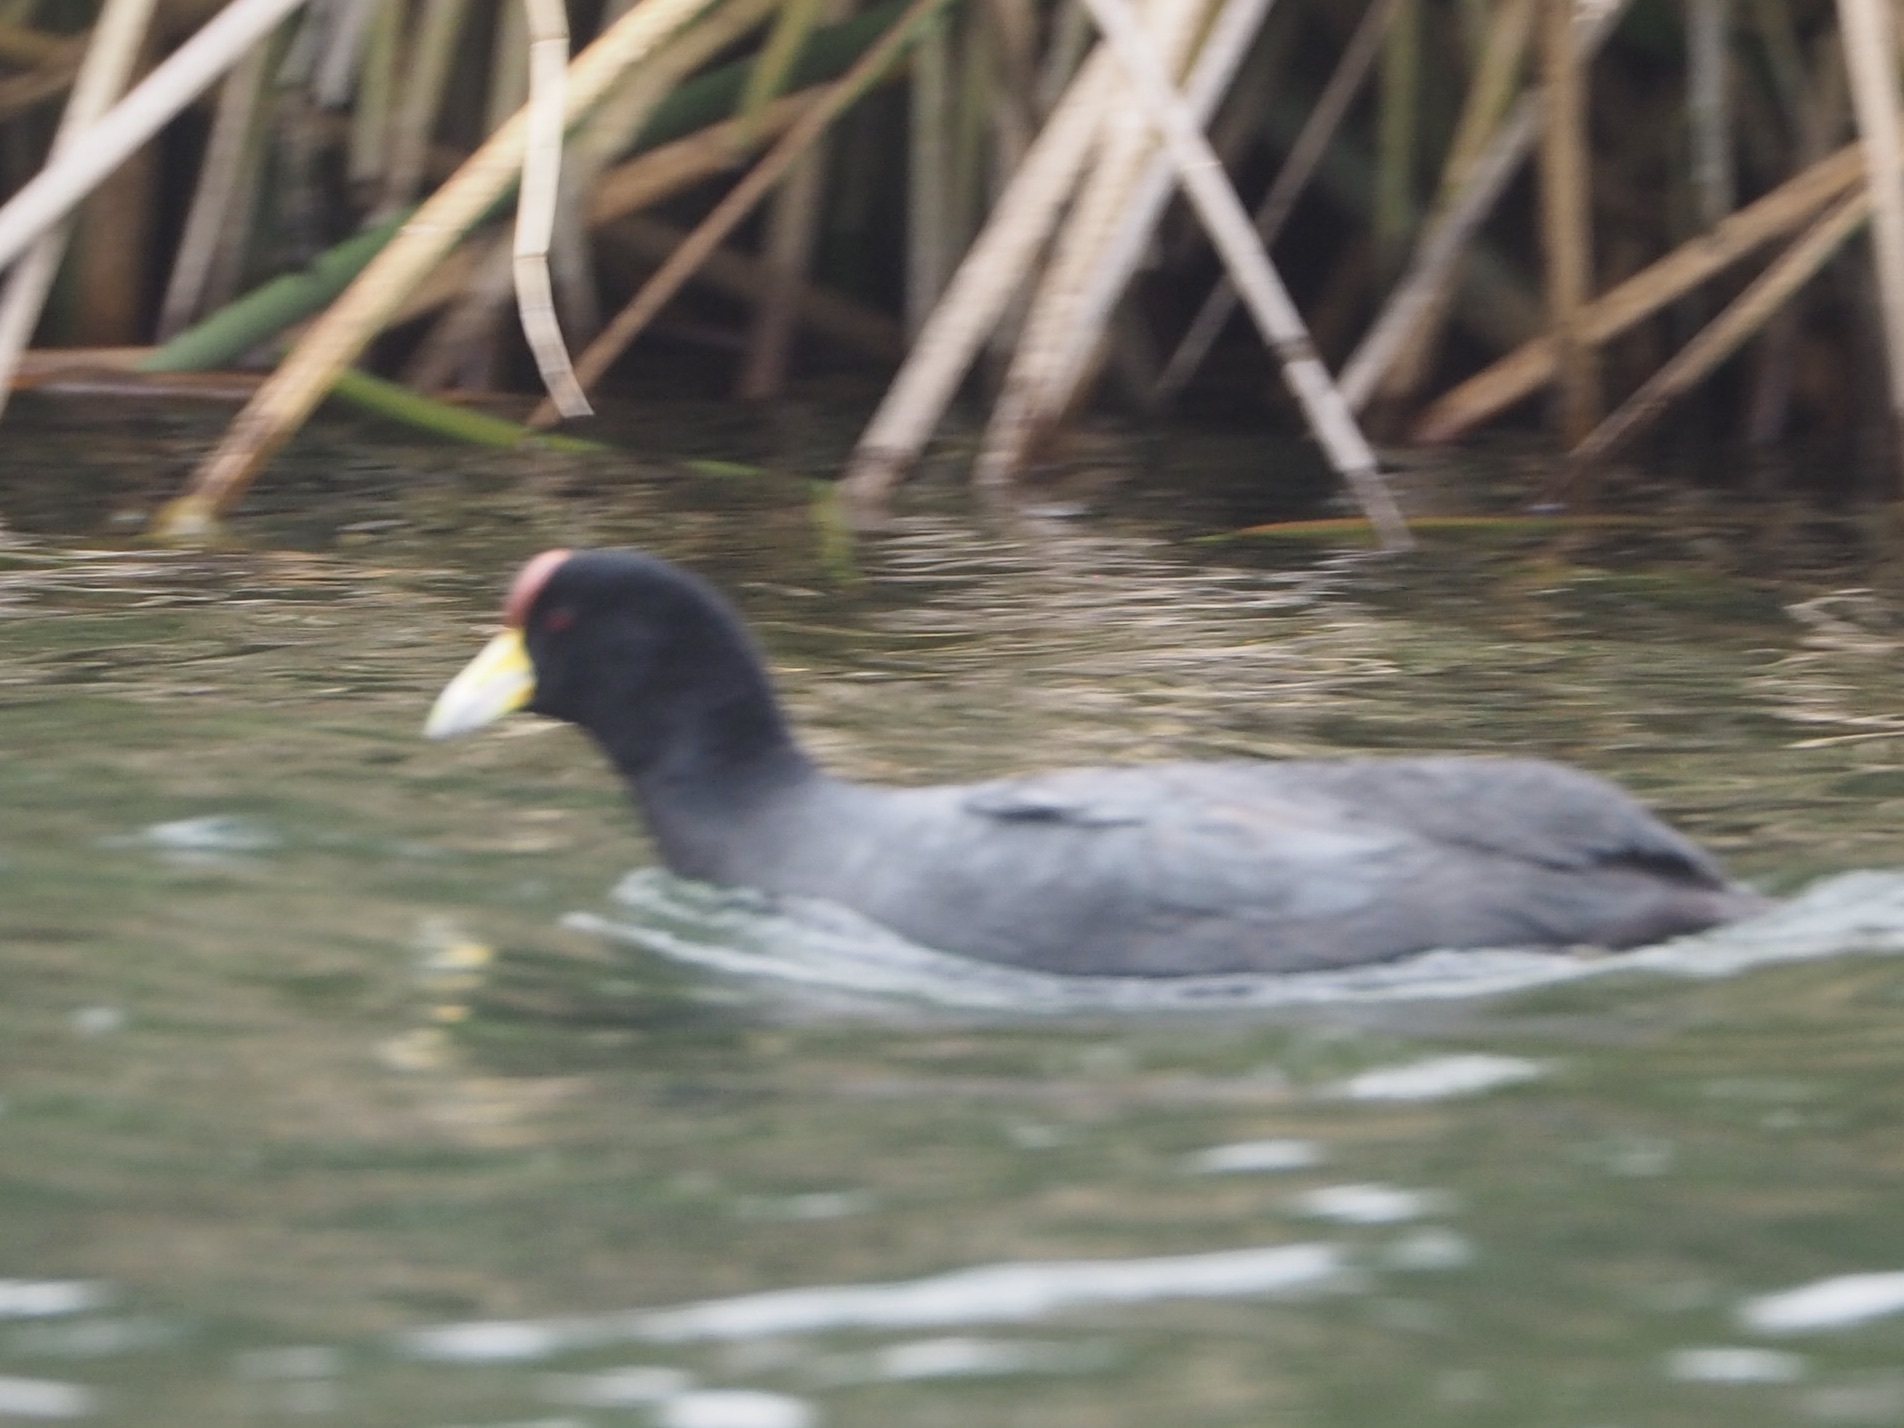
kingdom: Animalia
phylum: Chordata
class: Aves
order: Gruiformes
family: Rallidae
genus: Fulica
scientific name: Fulica ardesiaca
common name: Andean coot
